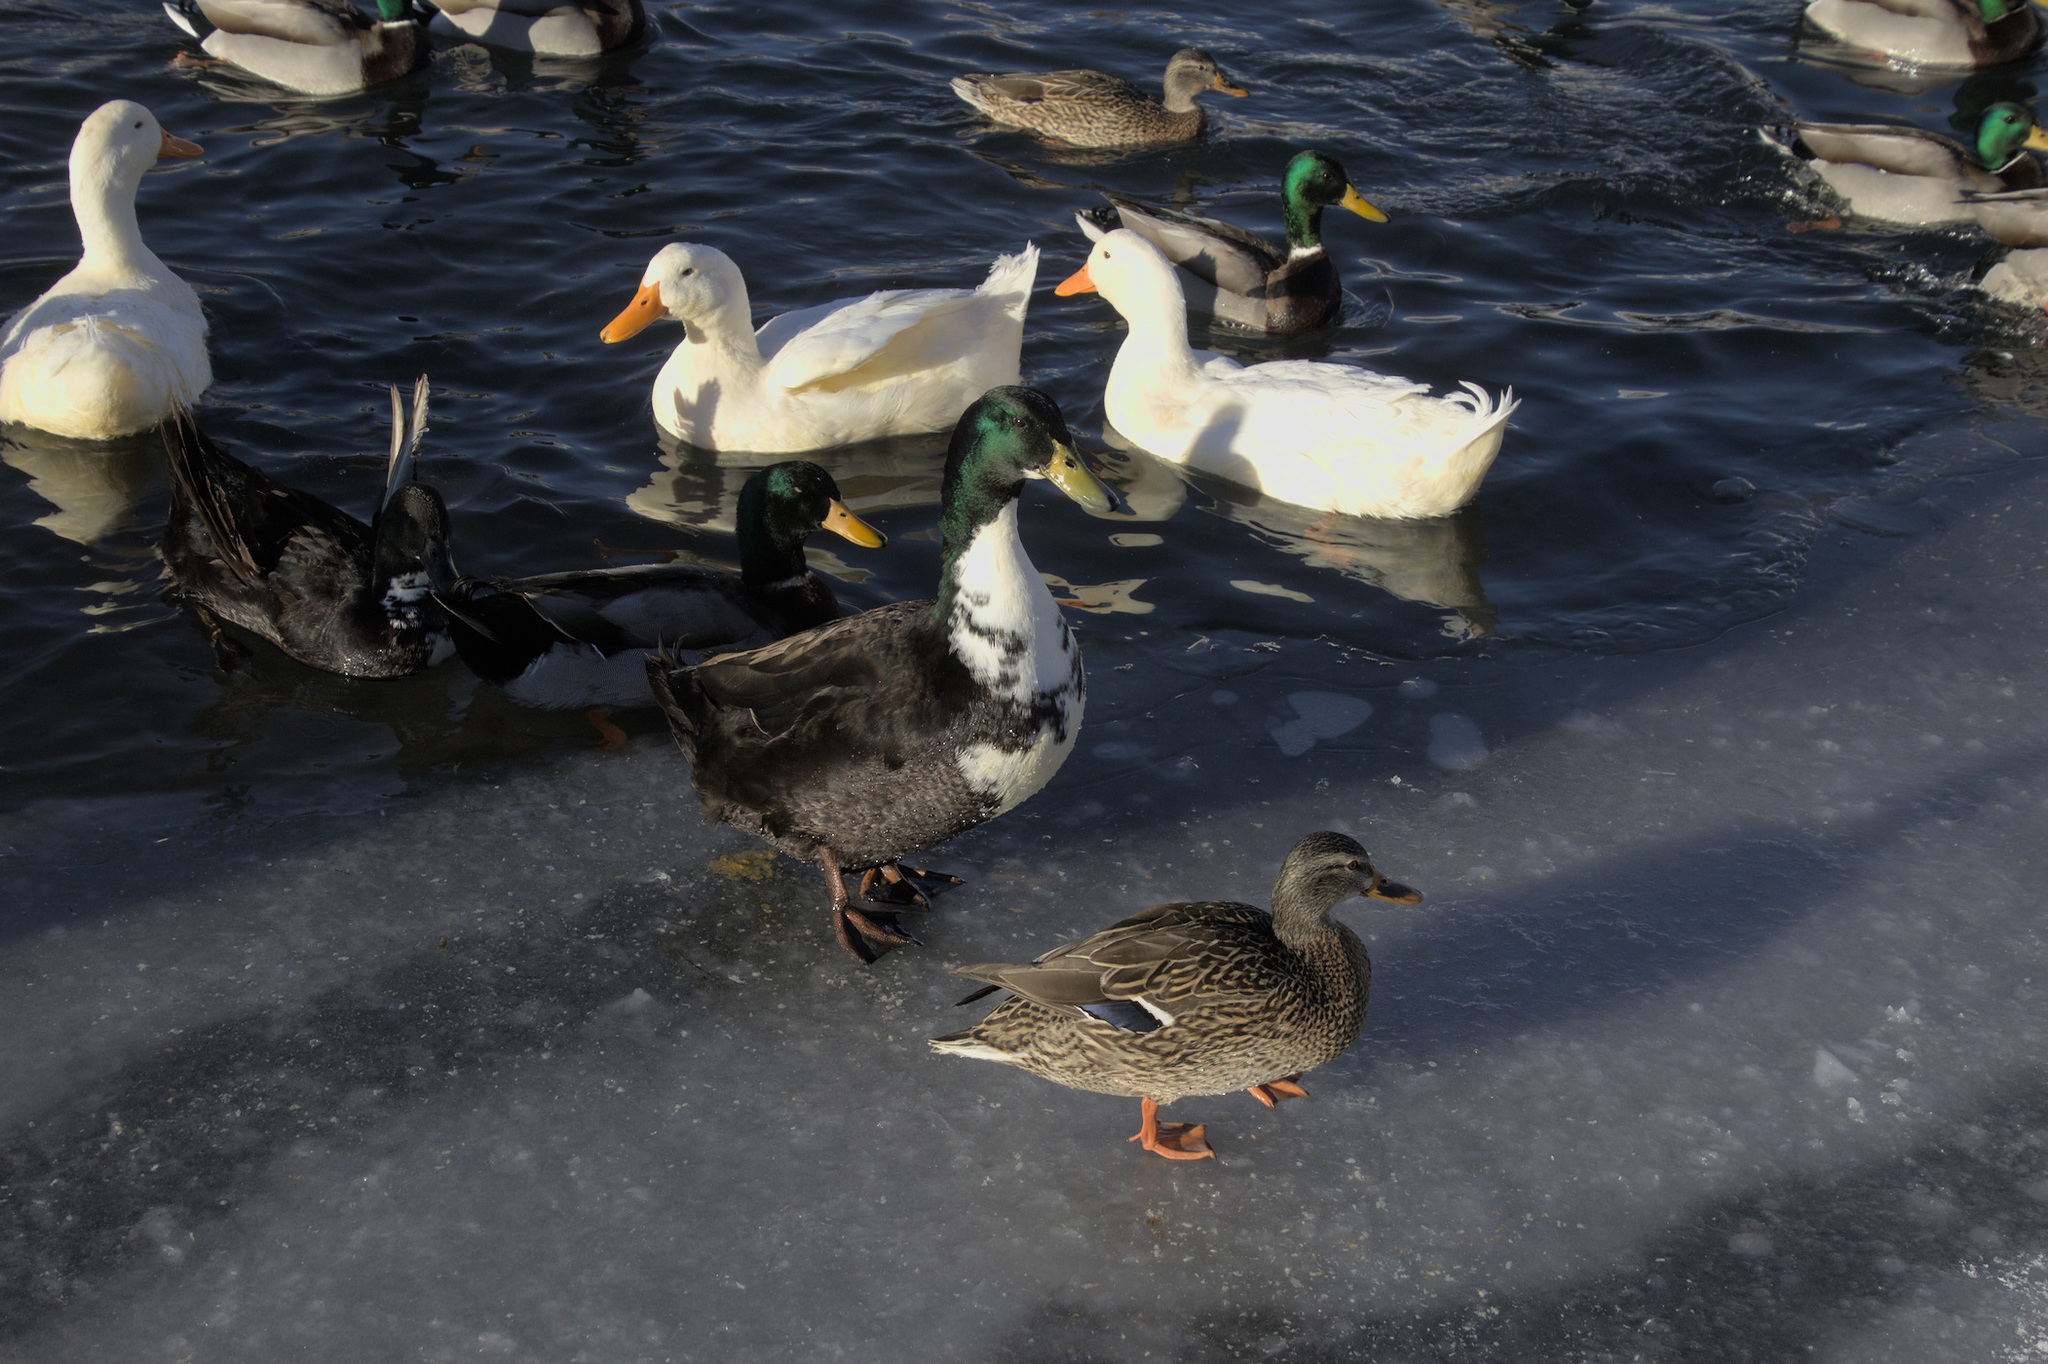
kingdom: Animalia
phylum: Chordata
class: Aves
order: Anseriformes
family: Anatidae
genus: Anas
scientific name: Anas platyrhynchos
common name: Mallard
